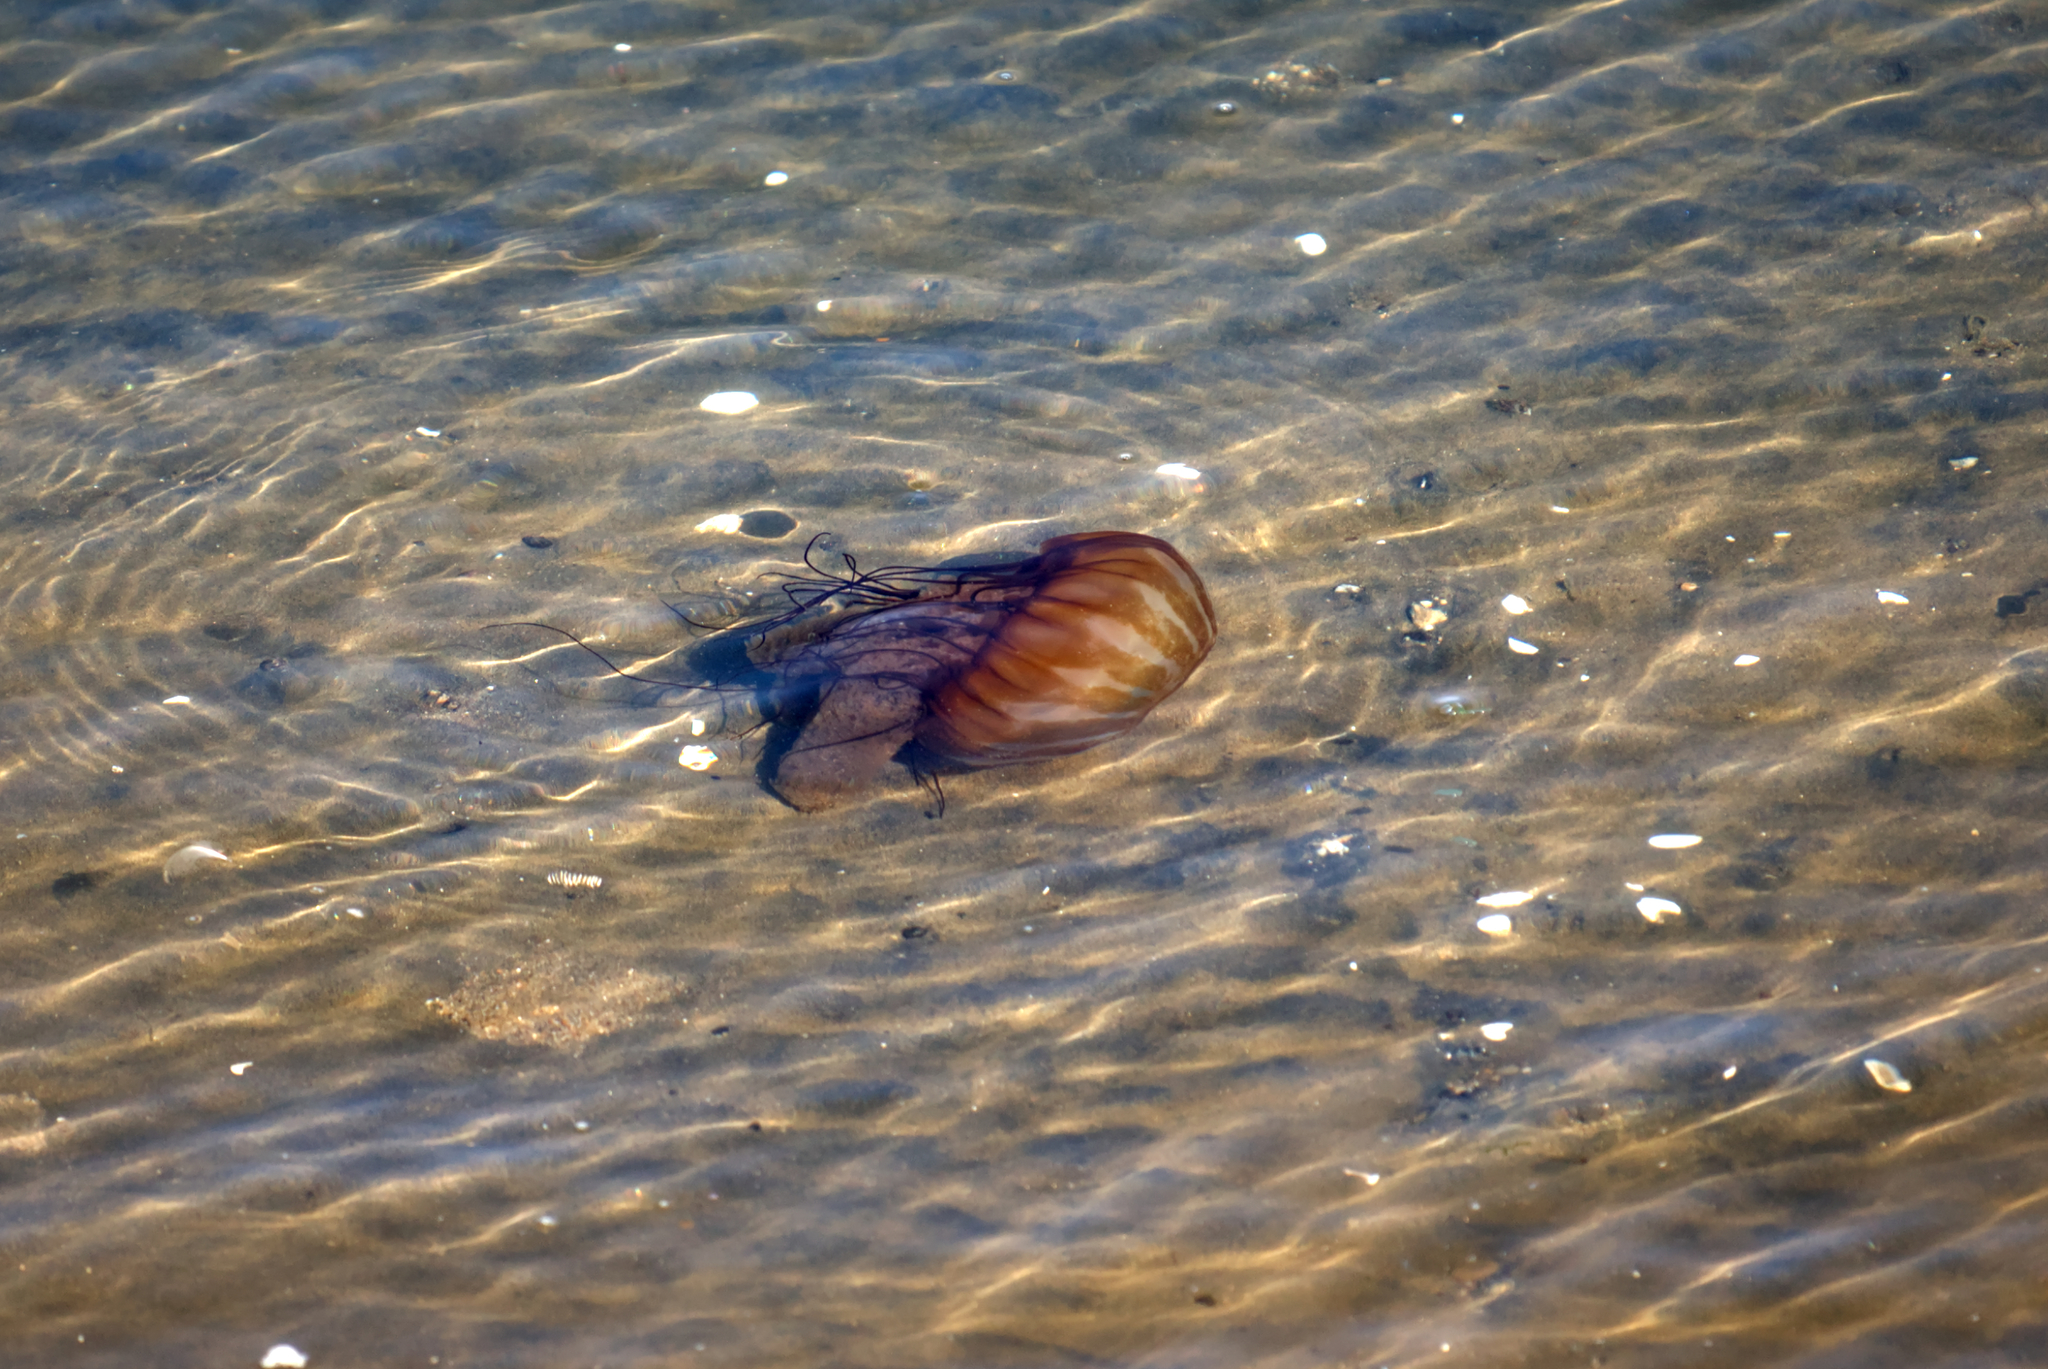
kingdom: Animalia
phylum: Cnidaria
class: Scyphozoa
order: Semaeostomeae
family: Pelagiidae
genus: Chrysaora
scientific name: Chrysaora fuscescens
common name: Sea nettle
